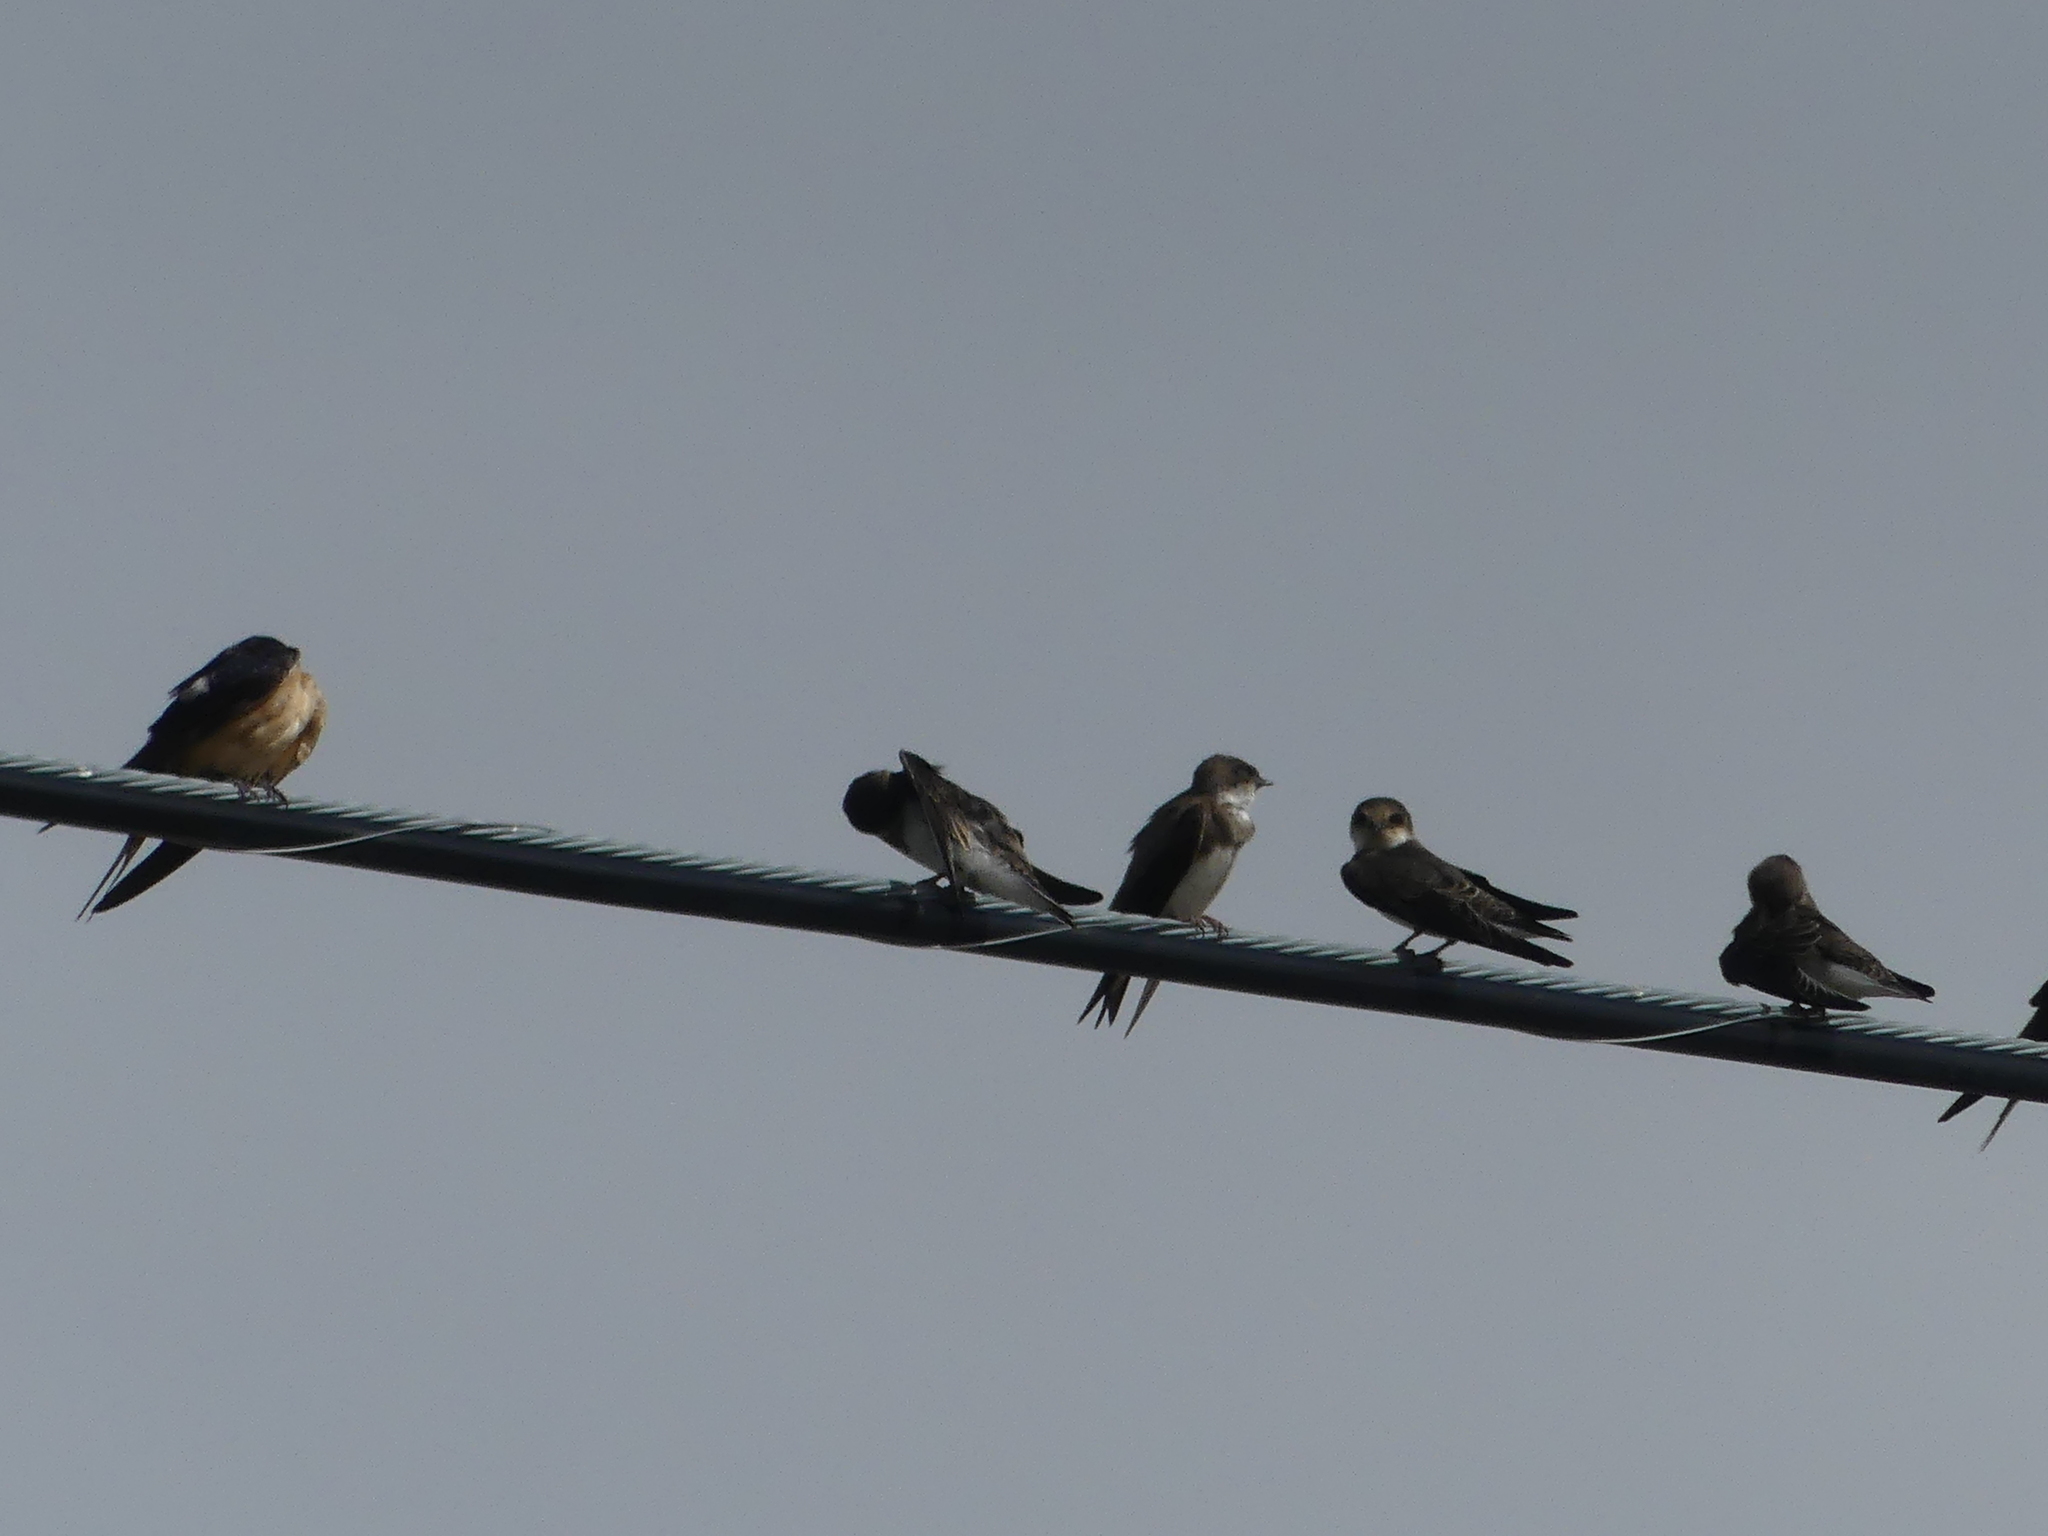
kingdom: Animalia
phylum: Chordata
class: Aves
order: Passeriformes
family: Hirundinidae
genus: Riparia
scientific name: Riparia riparia
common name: Sand martin
